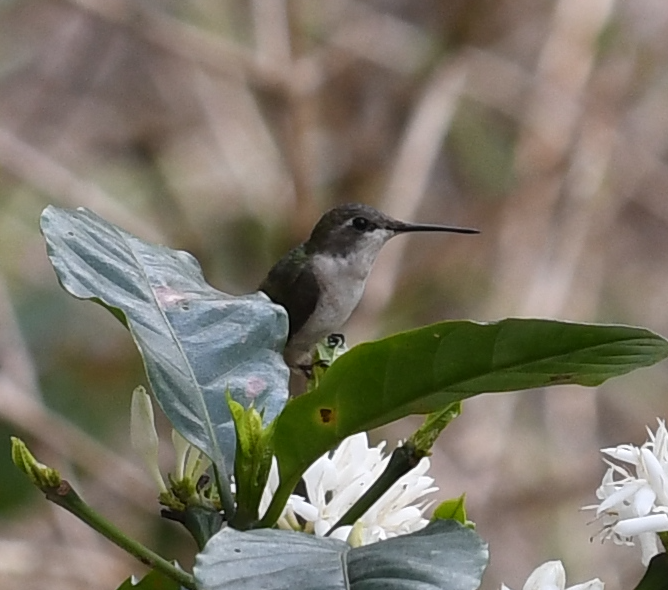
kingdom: Animalia
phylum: Chordata
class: Aves
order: Apodiformes
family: Trochilidae
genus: Archilochus
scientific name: Archilochus colubris
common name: Ruby-throated hummingbird
